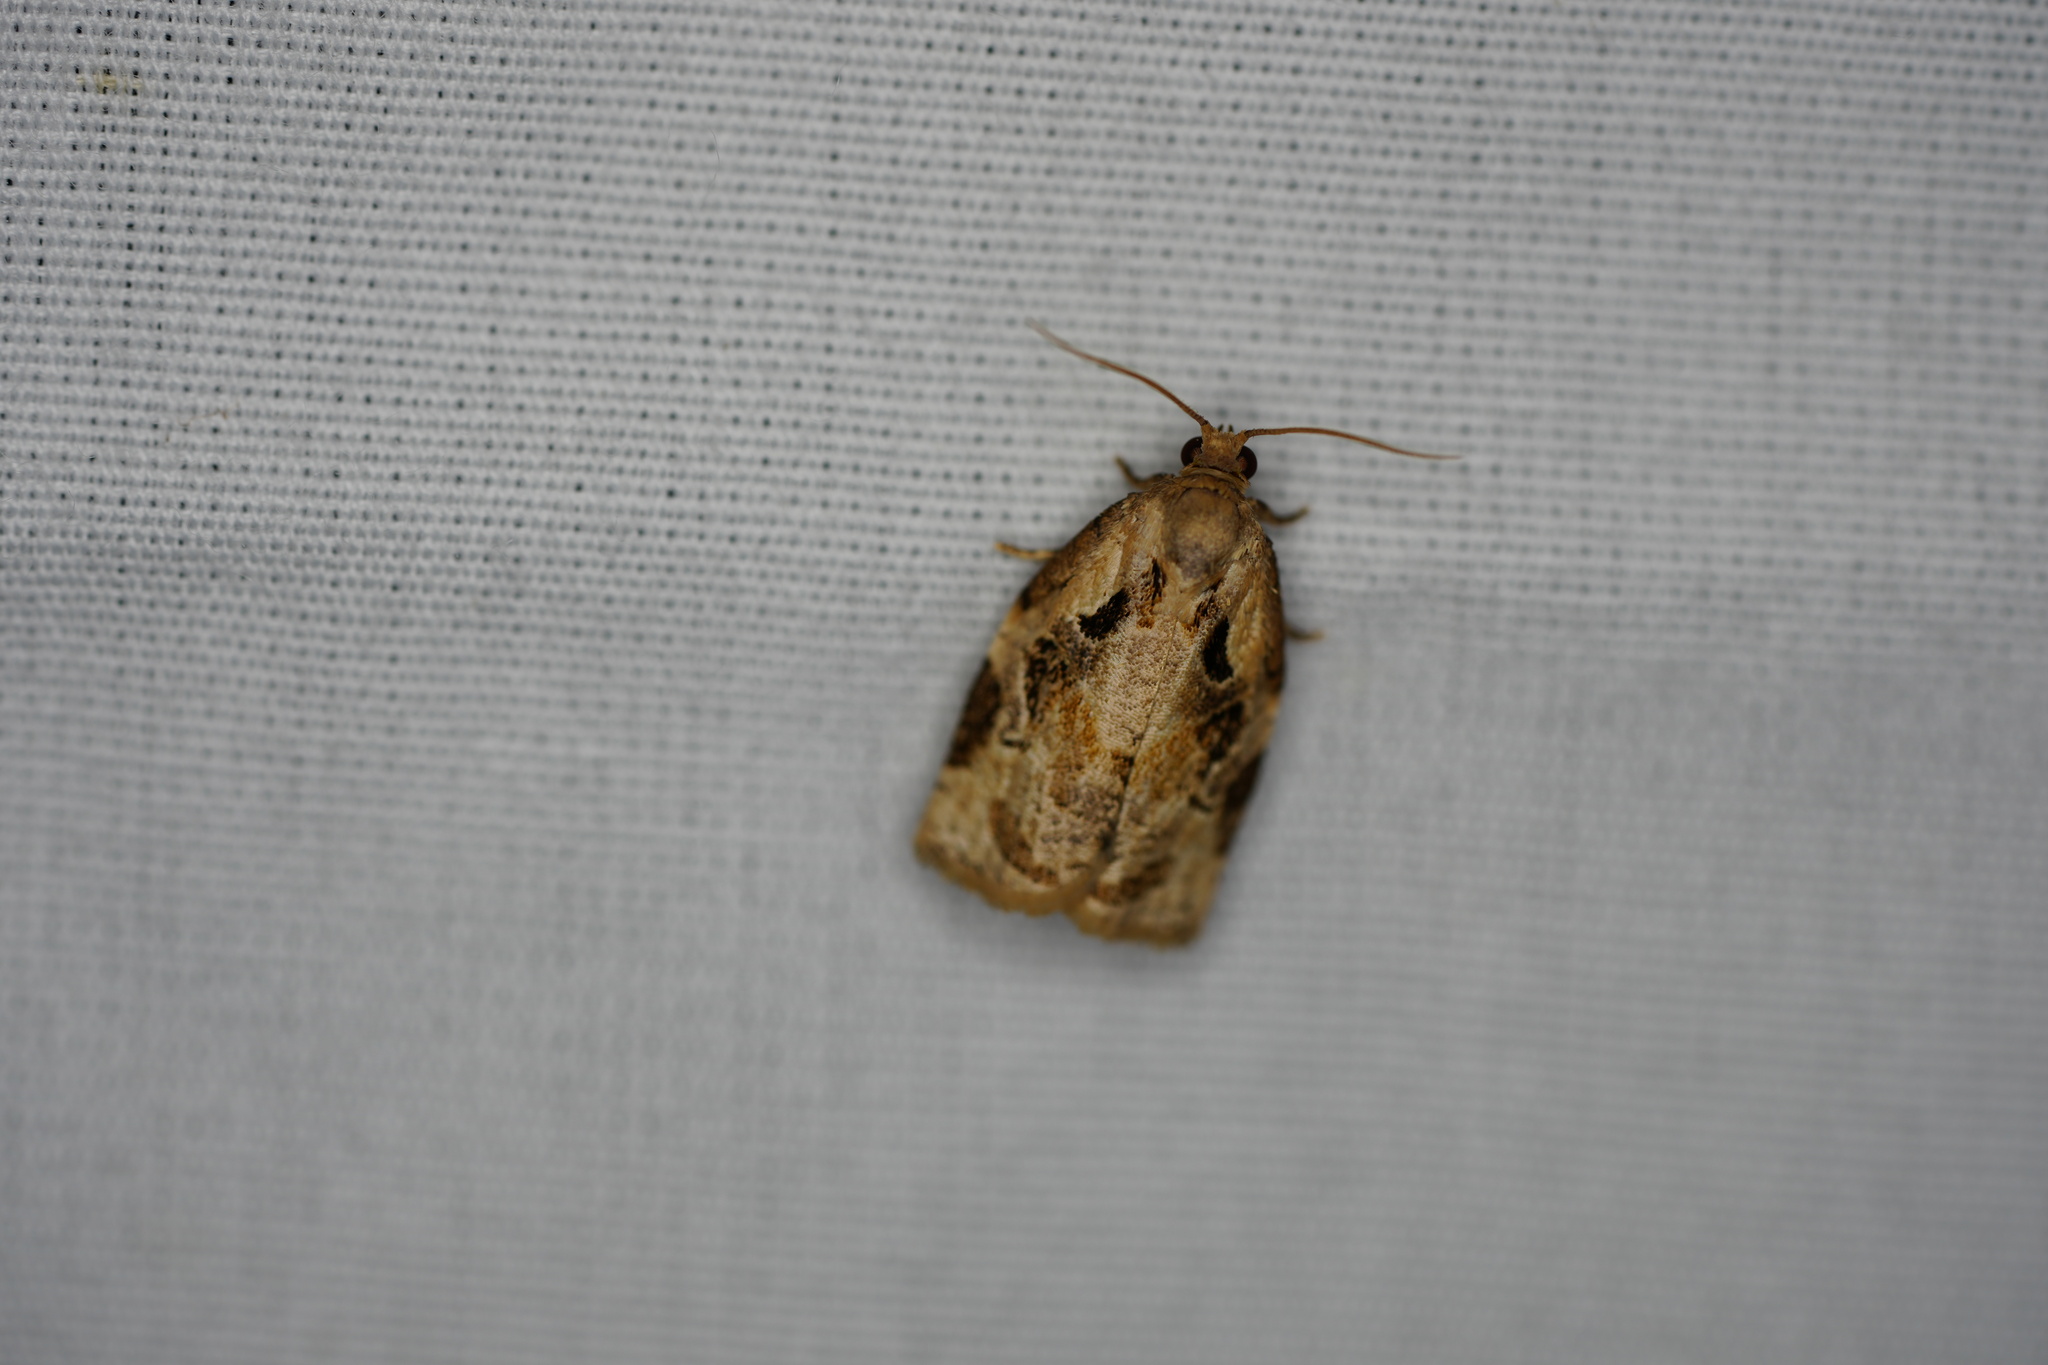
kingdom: Animalia
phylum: Arthropoda
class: Insecta
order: Lepidoptera
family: Tortricidae
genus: Archips
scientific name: Archips grisea
